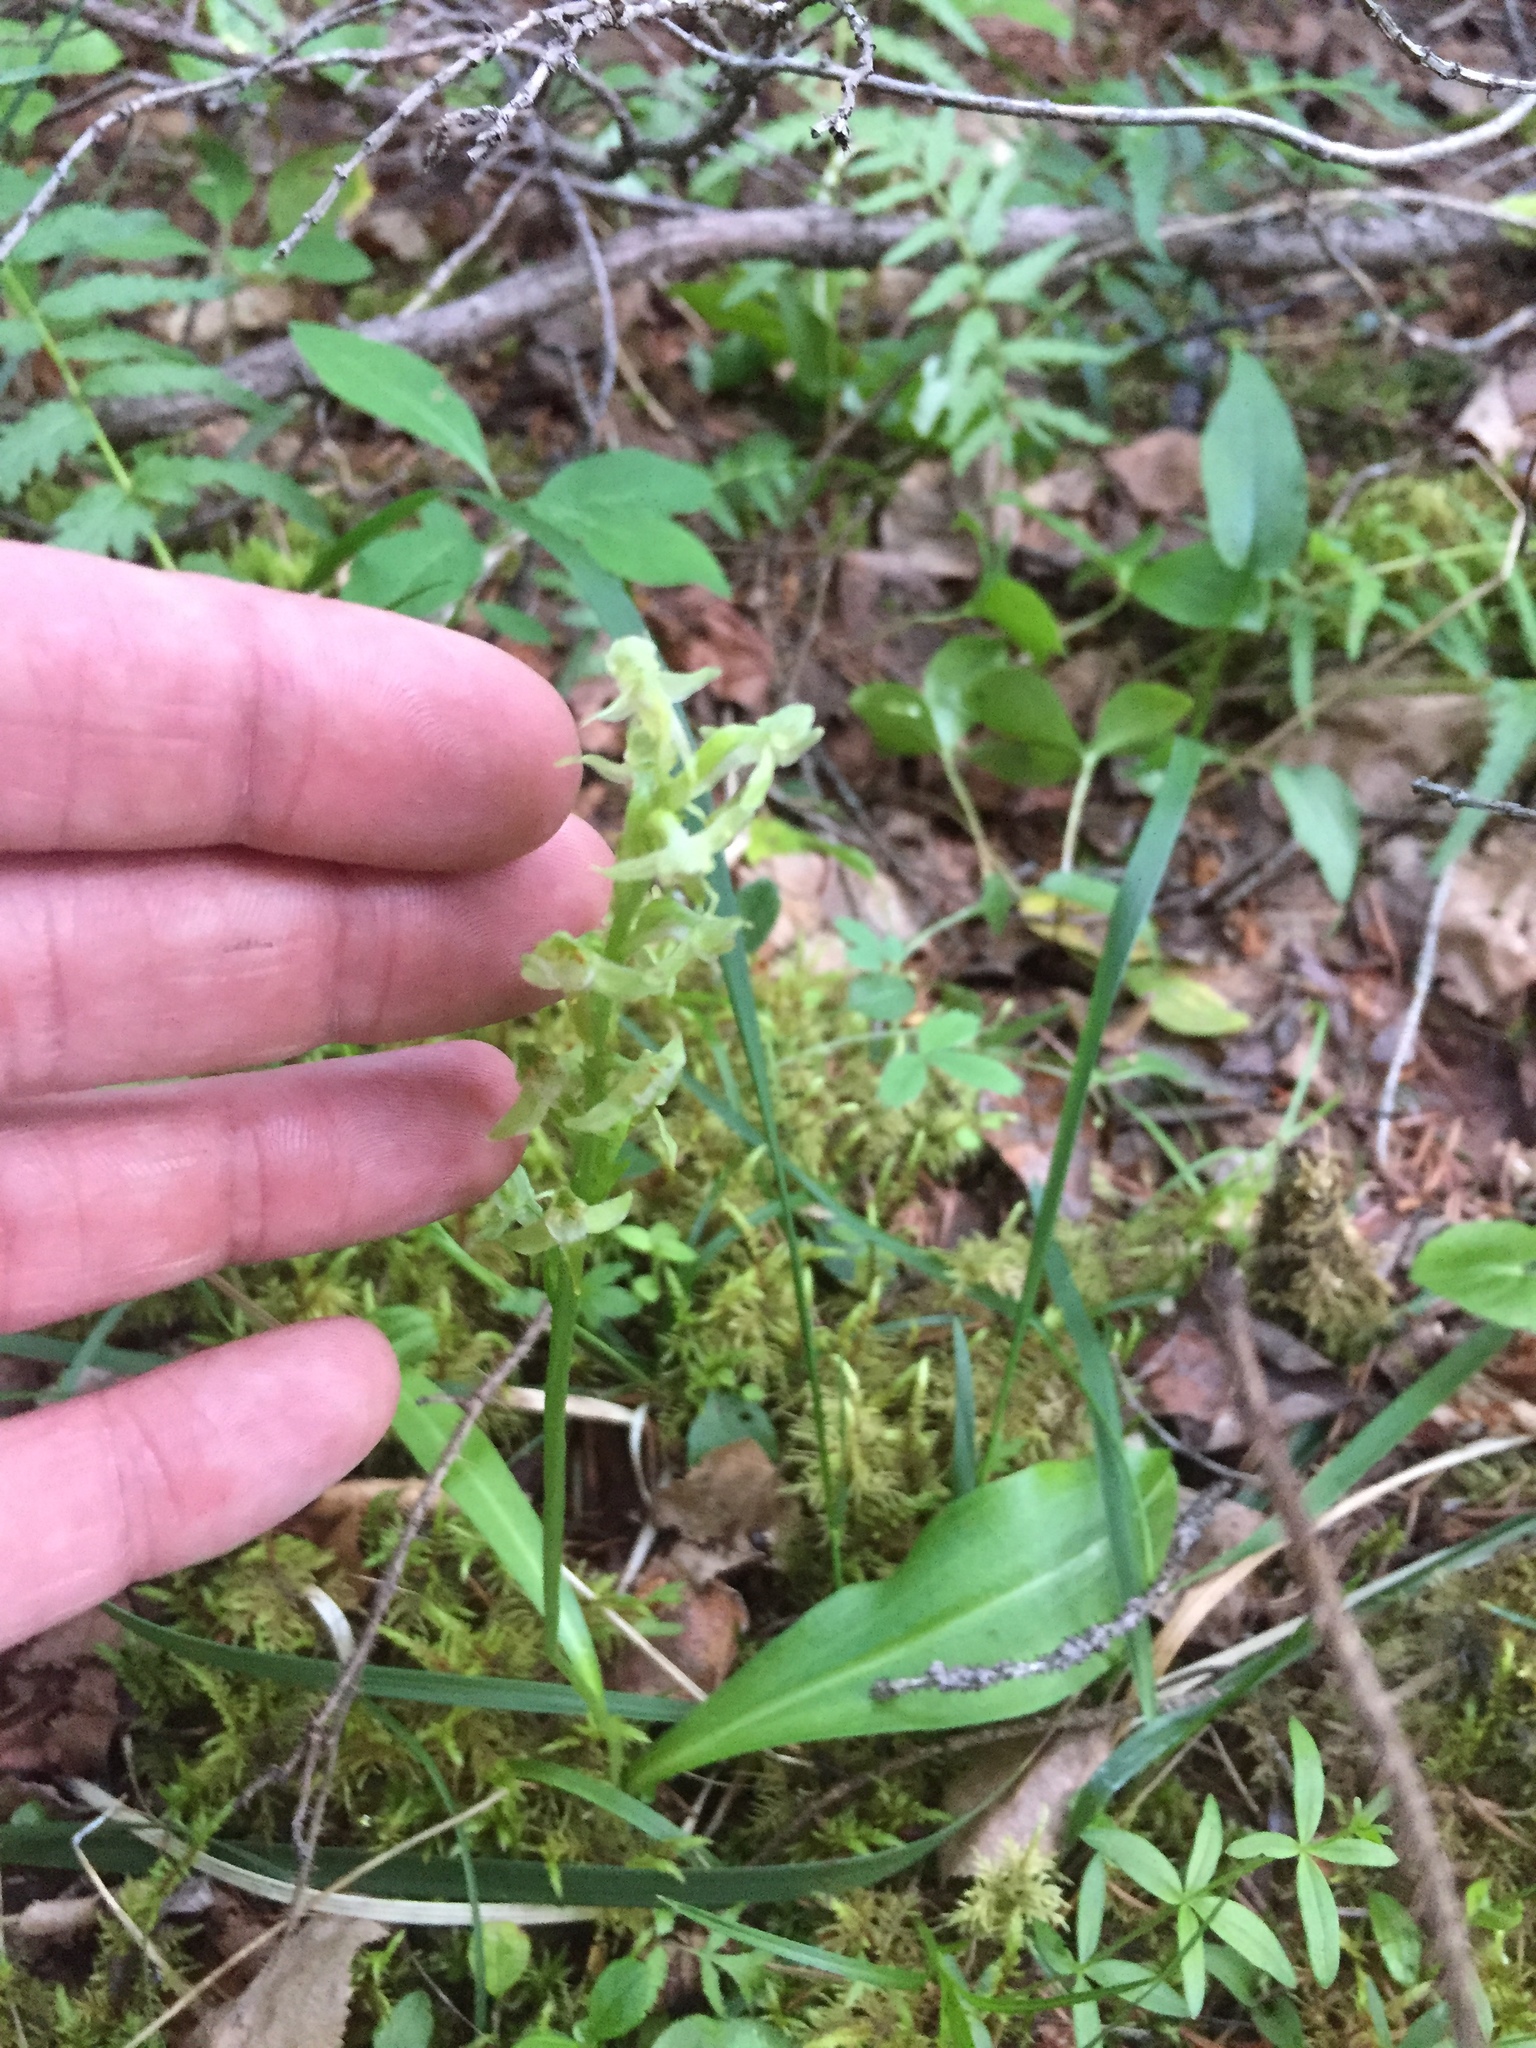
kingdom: Plantae
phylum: Tracheophyta
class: Liliopsida
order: Asparagales
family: Orchidaceae
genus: Platanthera
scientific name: Platanthera obtusata
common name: Blunt bog orchid
